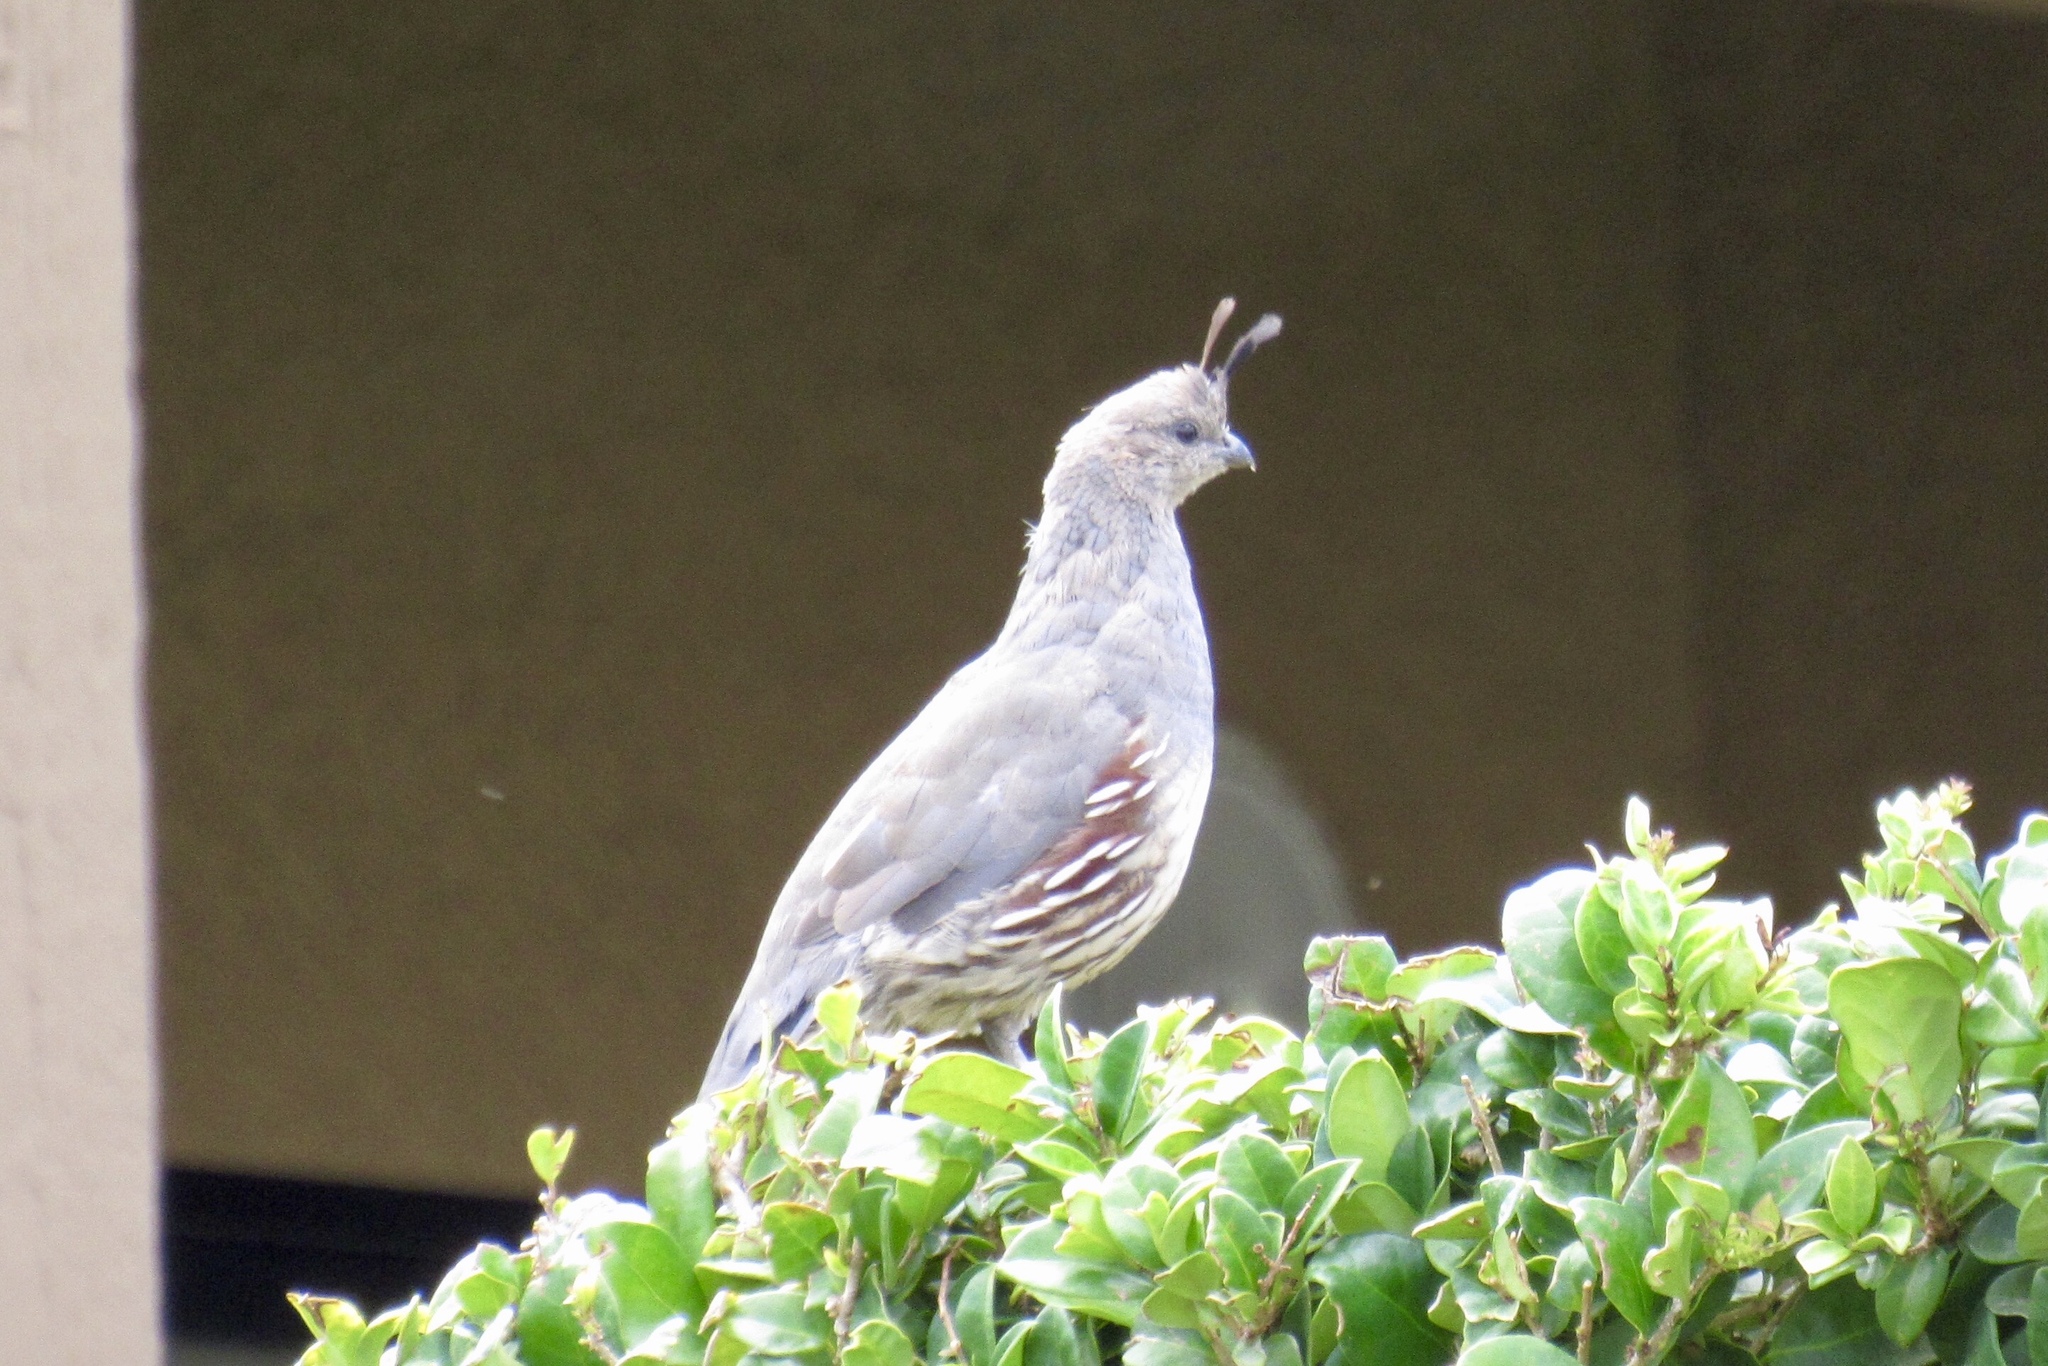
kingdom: Animalia
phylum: Chordata
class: Aves
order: Galliformes
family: Odontophoridae
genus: Callipepla
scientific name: Callipepla gambelii
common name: Gambel's quail
